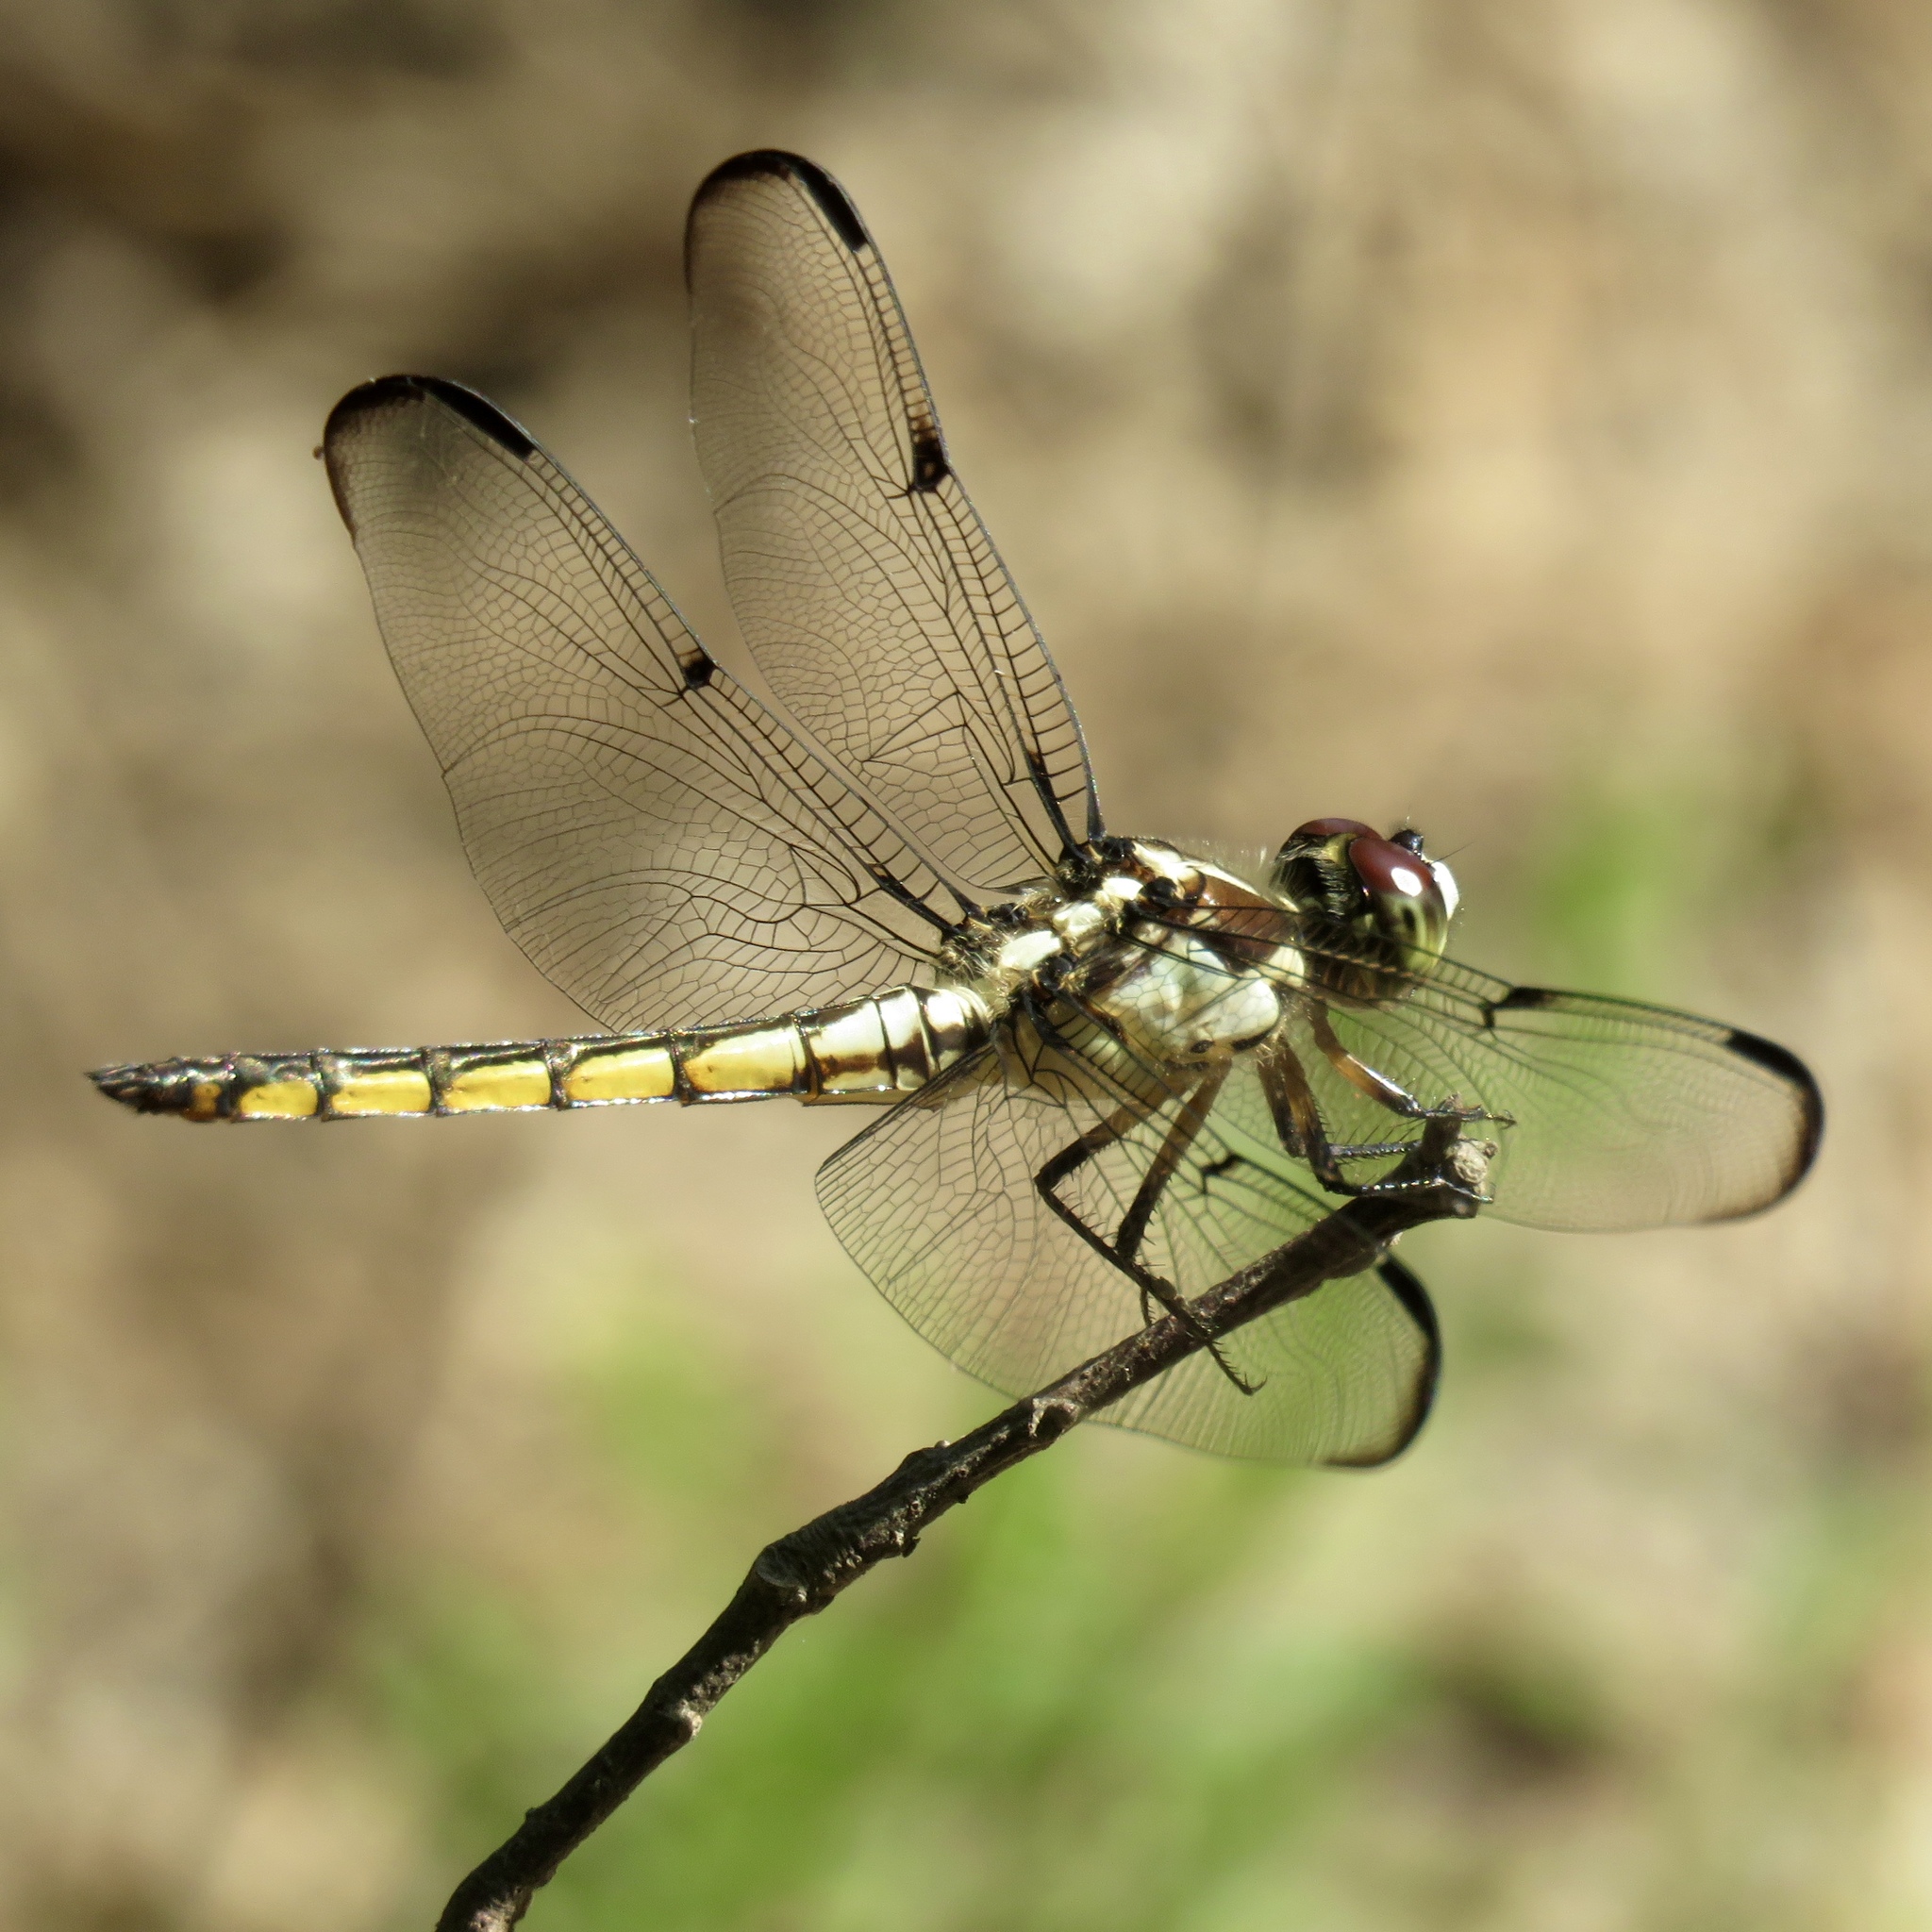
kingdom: Animalia
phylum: Arthropoda
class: Insecta
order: Odonata
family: Libellulidae
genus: Libellula
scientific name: Libellula vibrans
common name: Great blue skimmer
